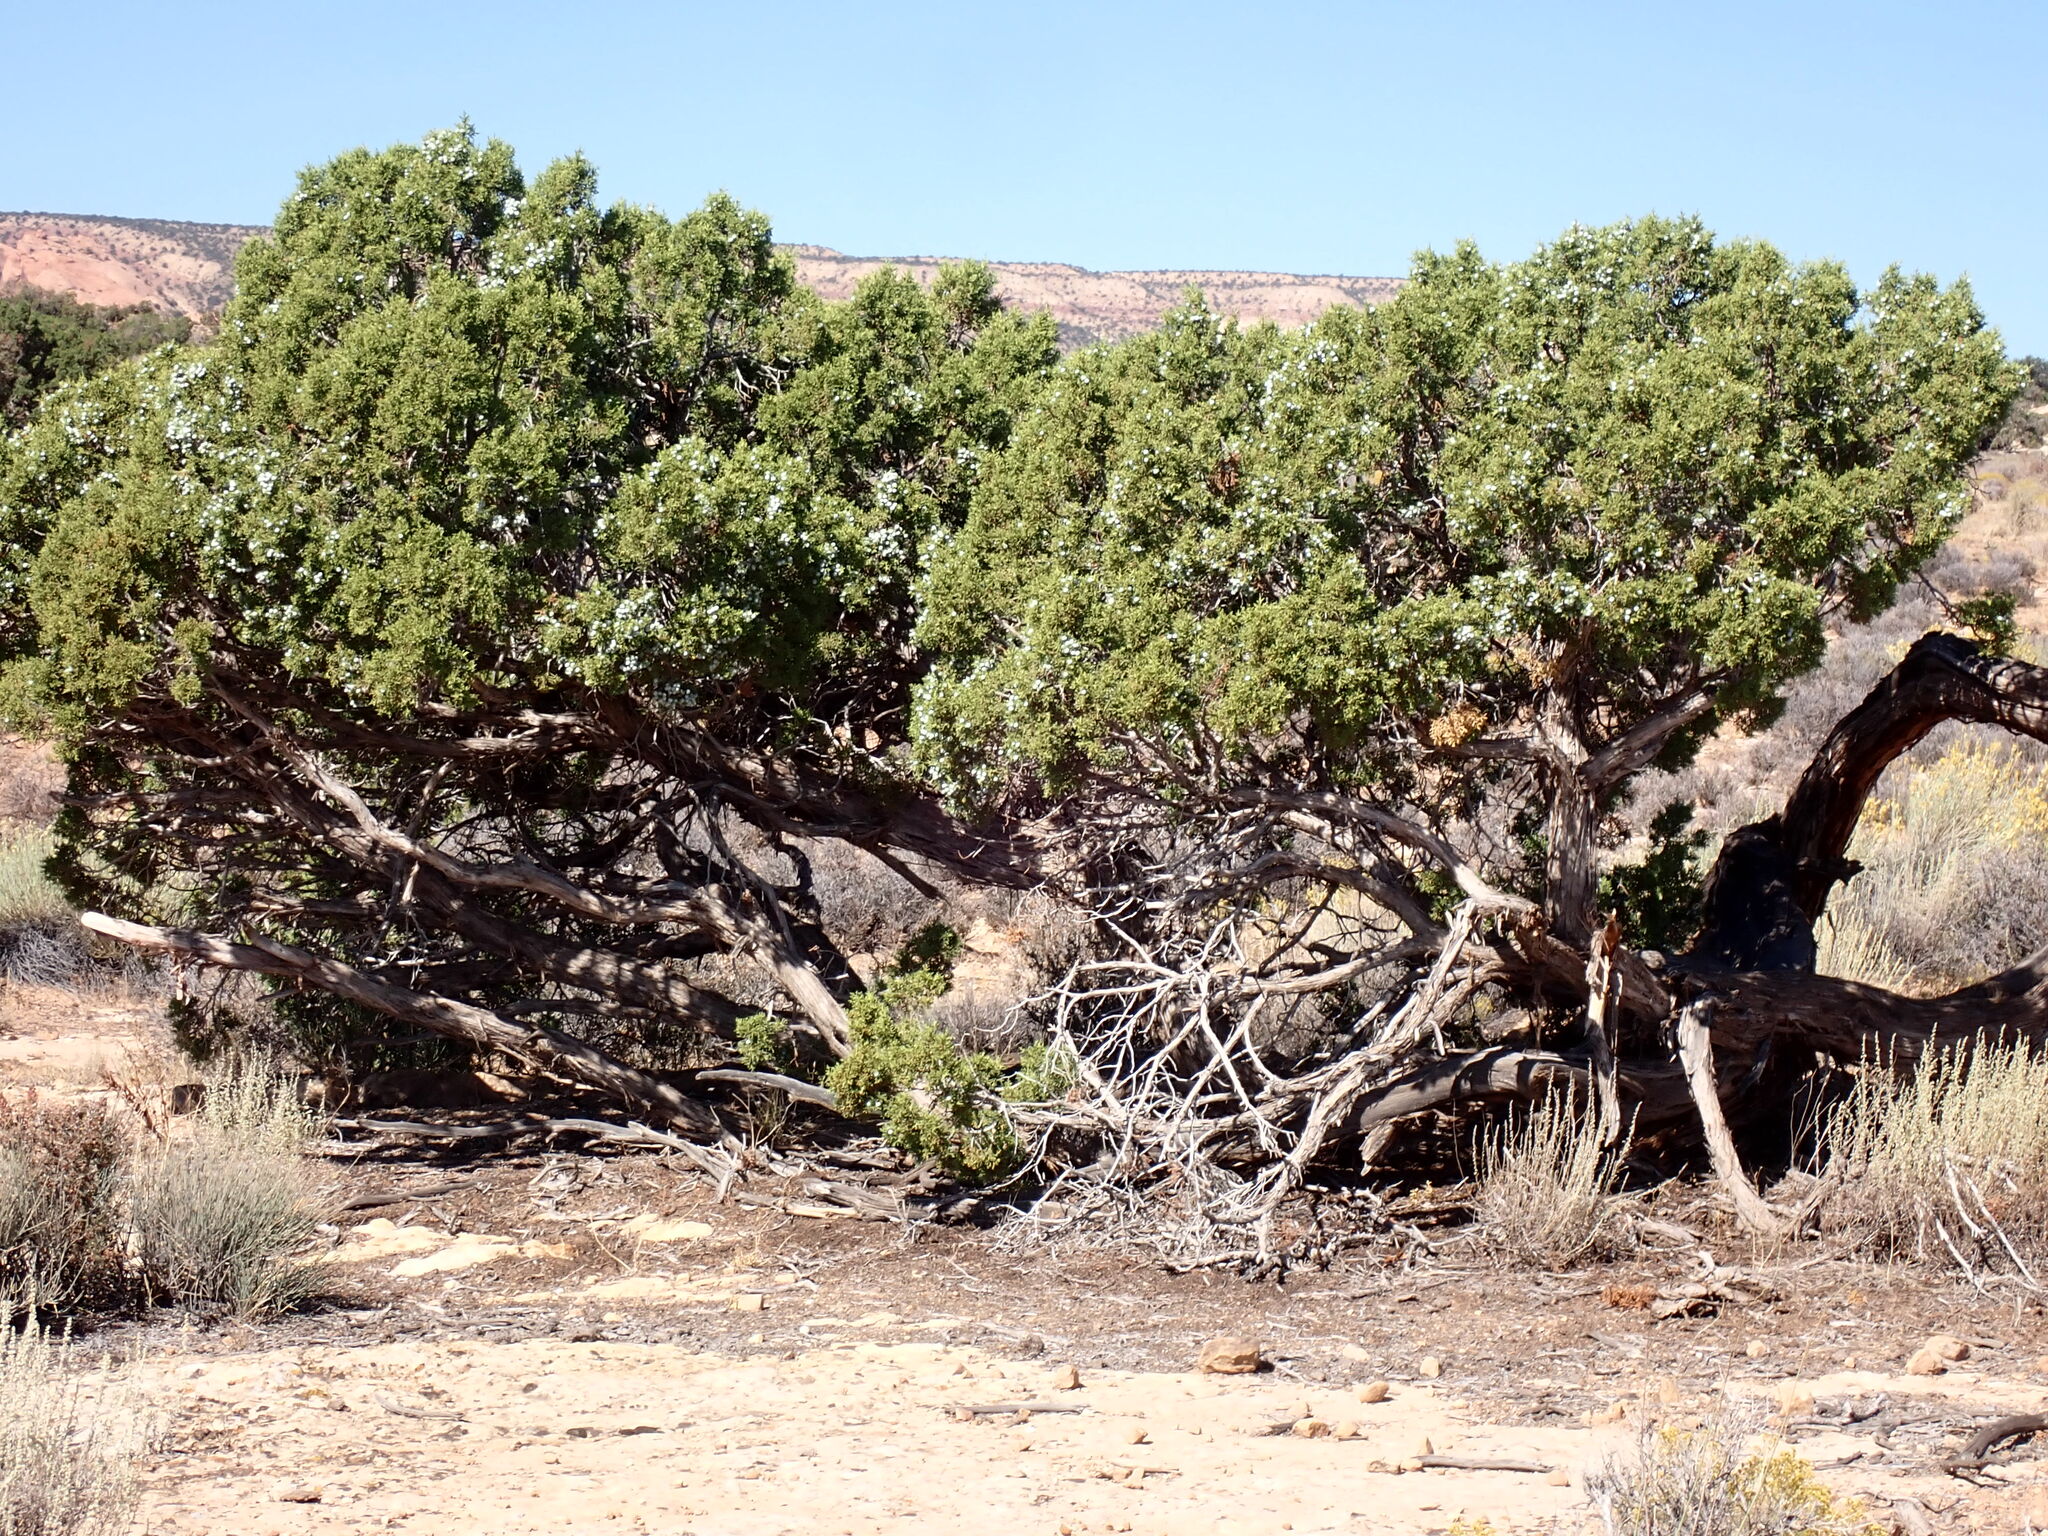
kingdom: Plantae
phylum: Tracheophyta
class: Pinopsida
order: Pinales
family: Cupressaceae
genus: Juniperus
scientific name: Juniperus osteosperma
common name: Utah juniper
